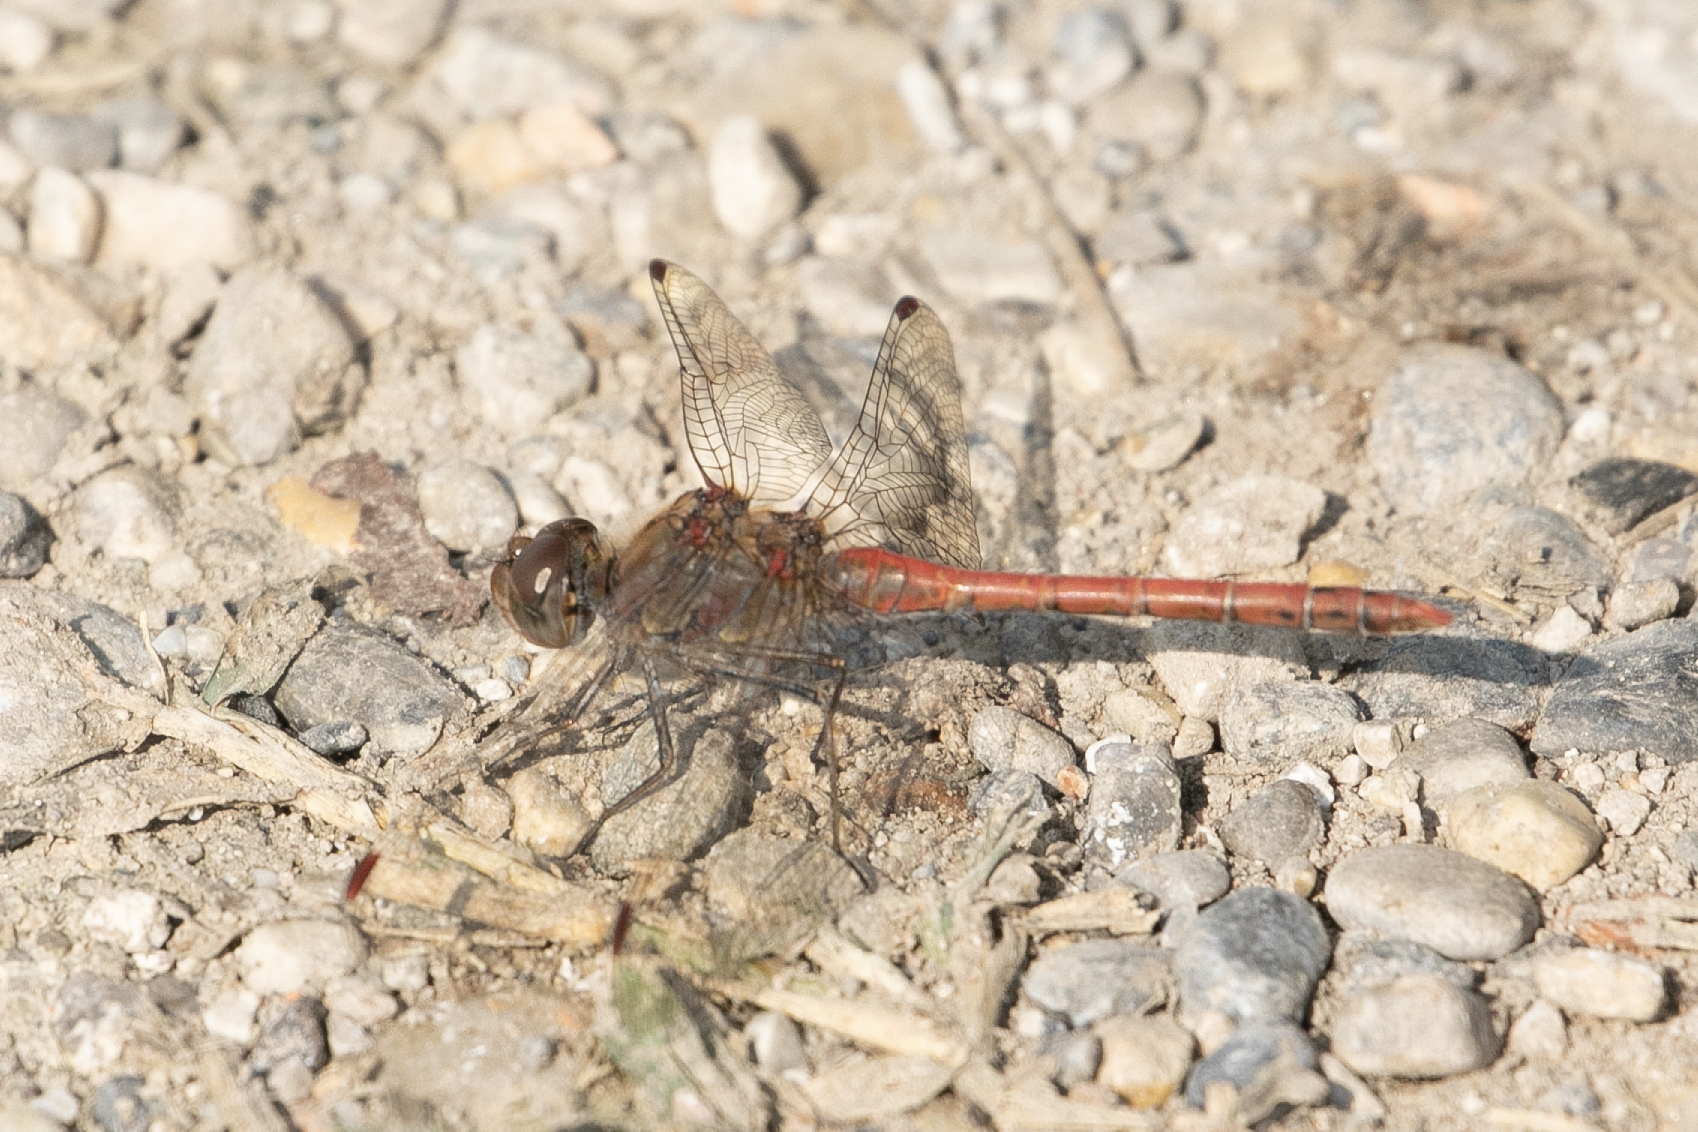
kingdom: Animalia
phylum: Arthropoda
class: Insecta
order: Odonata
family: Libellulidae
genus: Sympetrum
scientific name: Sympetrum striolatum
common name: Common darter
